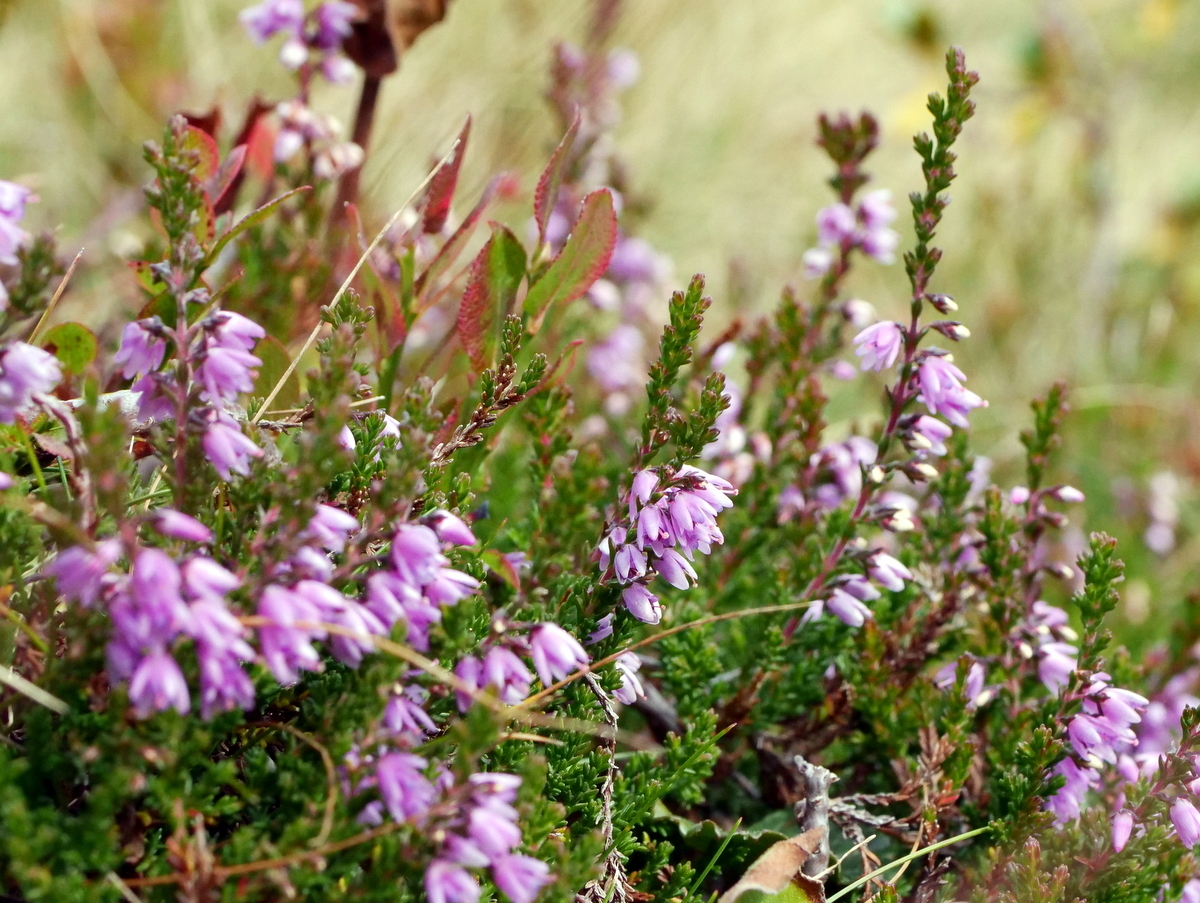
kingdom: Plantae
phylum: Tracheophyta
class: Magnoliopsida
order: Ericales
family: Ericaceae
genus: Calluna
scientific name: Calluna vulgaris
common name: Heather
